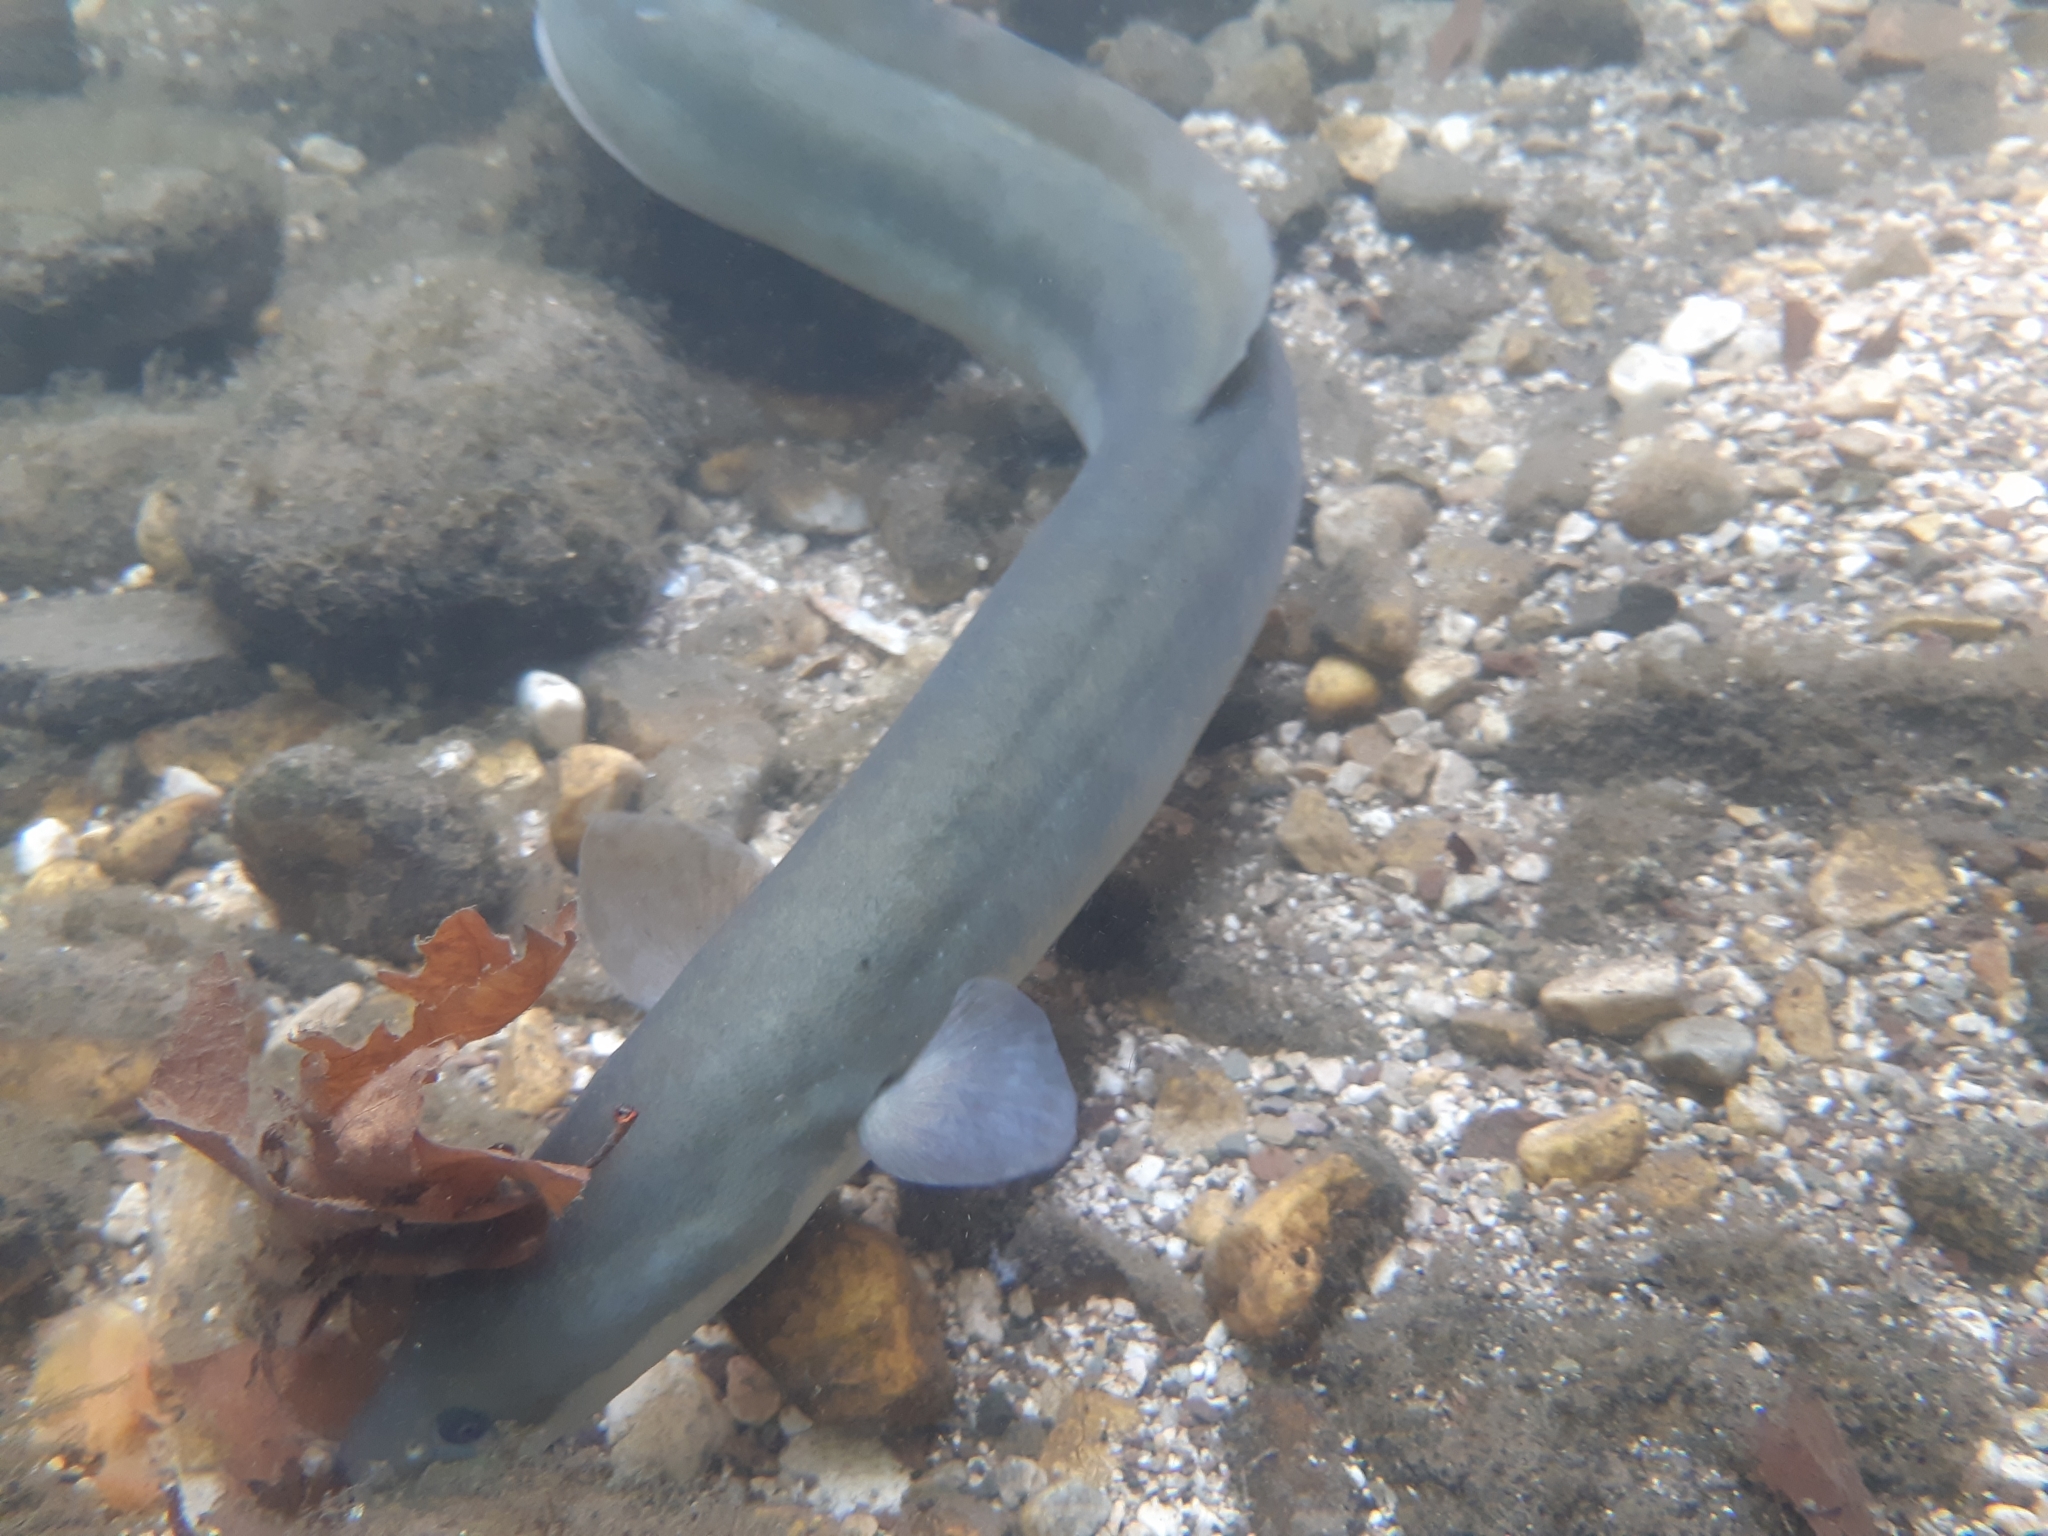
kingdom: Animalia
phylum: Chordata
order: Anguilliformes
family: Anguillidae
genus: Anguilla
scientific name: Anguilla anguilla
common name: European eel
